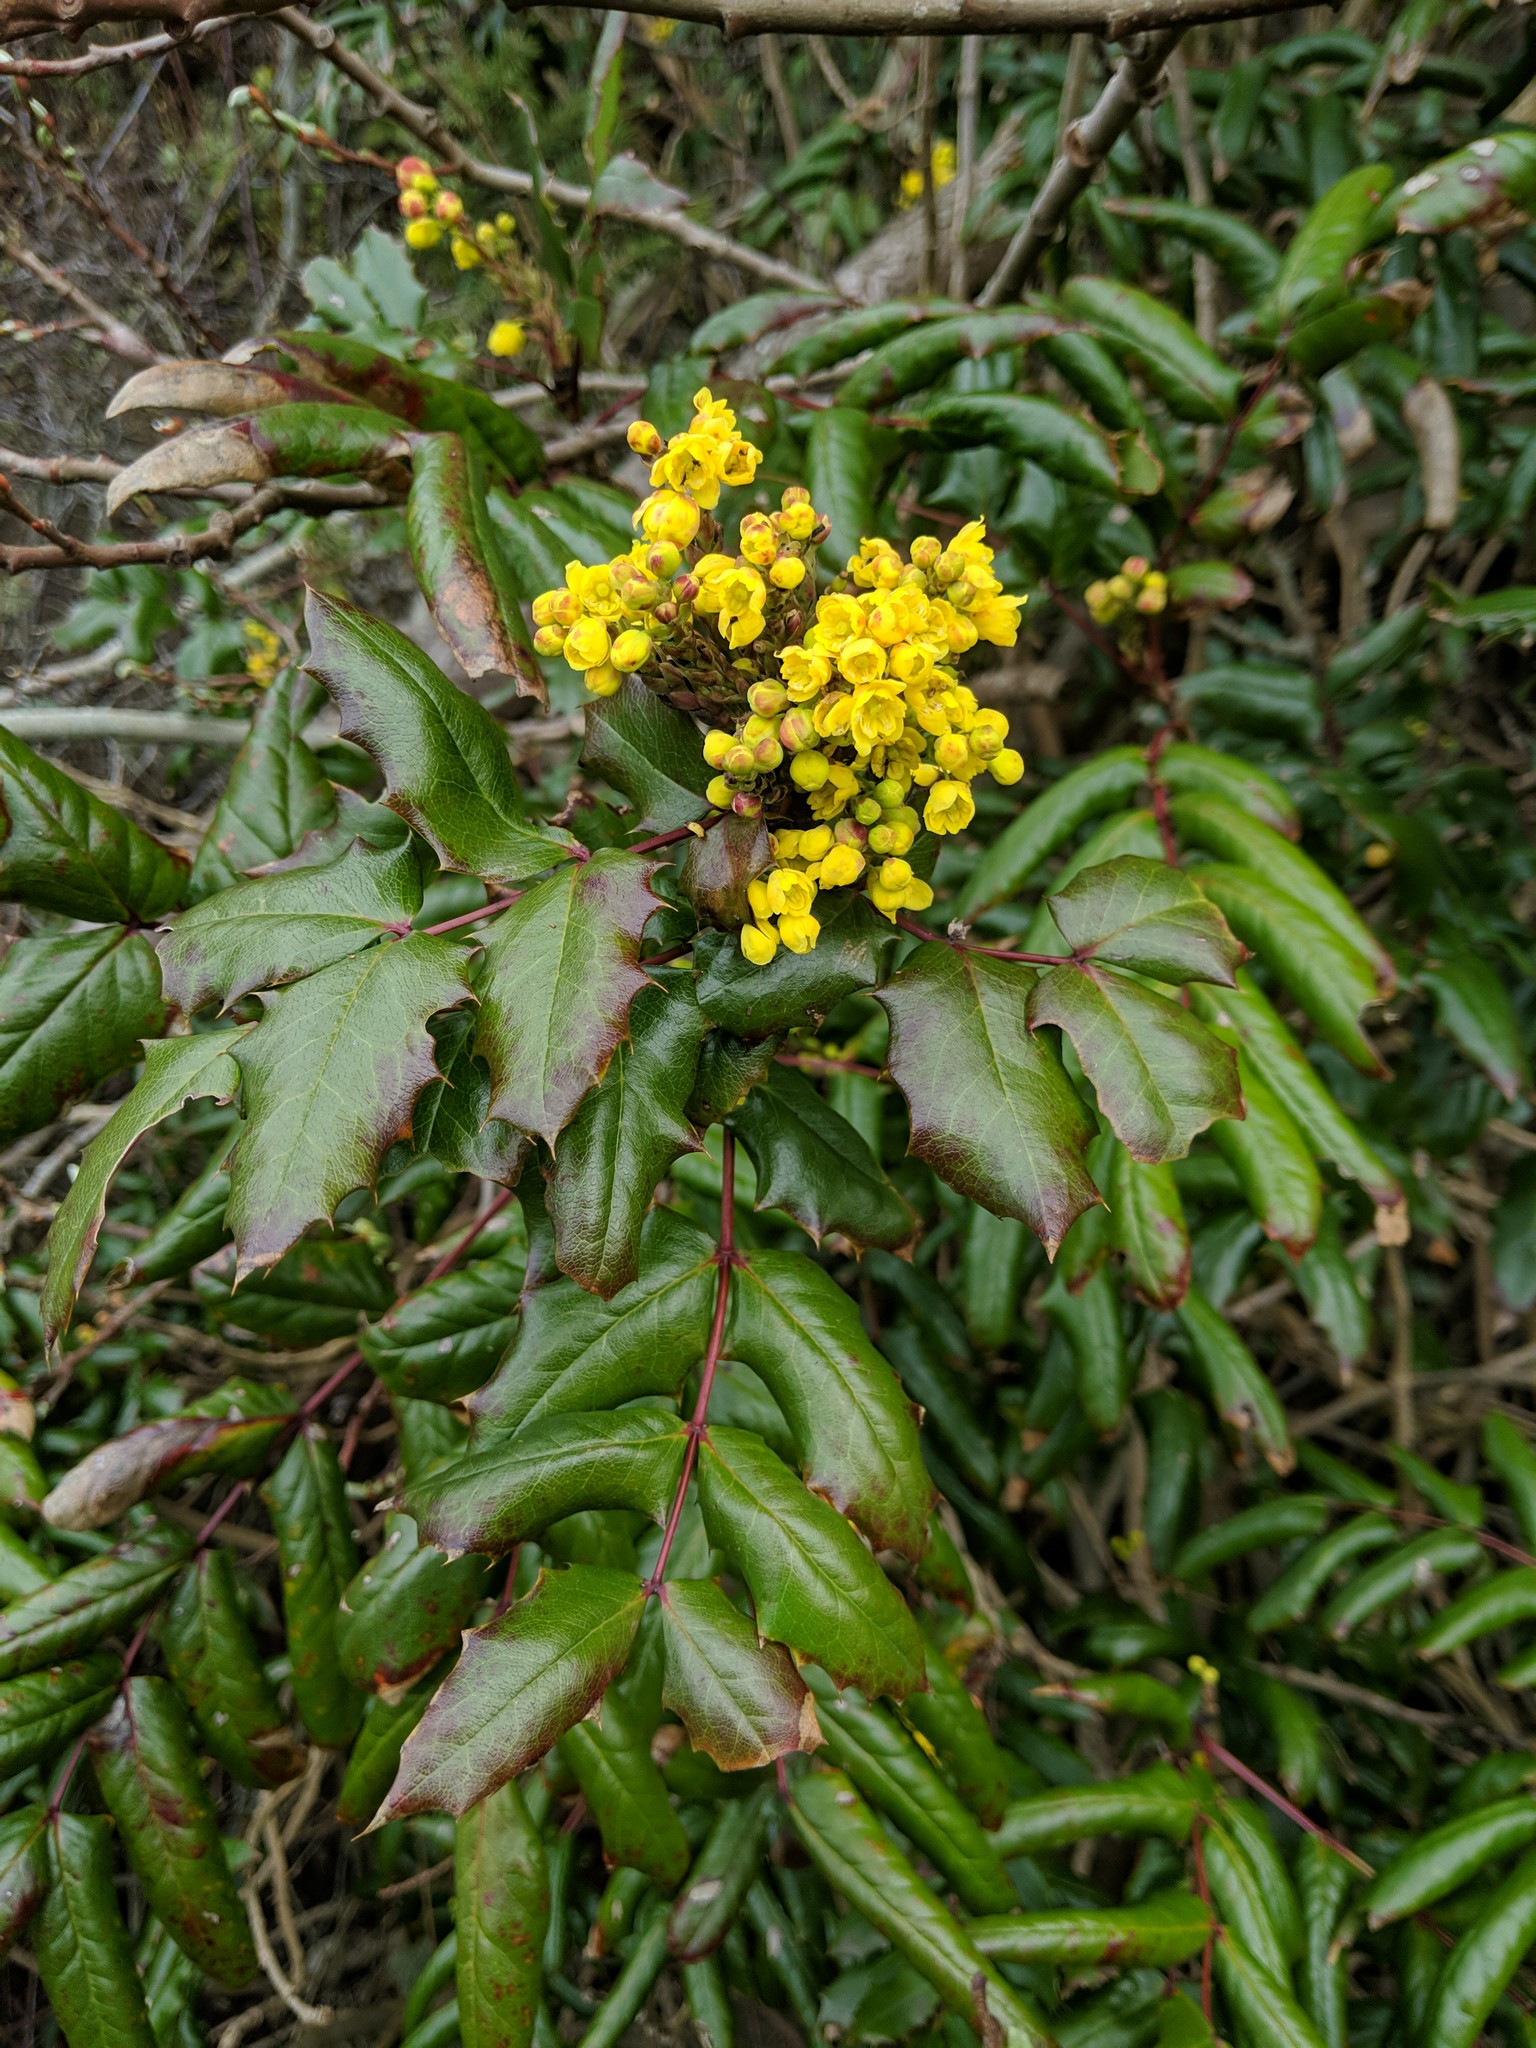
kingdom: Plantae
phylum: Tracheophyta
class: Magnoliopsida
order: Ranunculales
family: Berberidaceae
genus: Mahonia
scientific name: Mahonia aquifolium
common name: Oregon-grape
